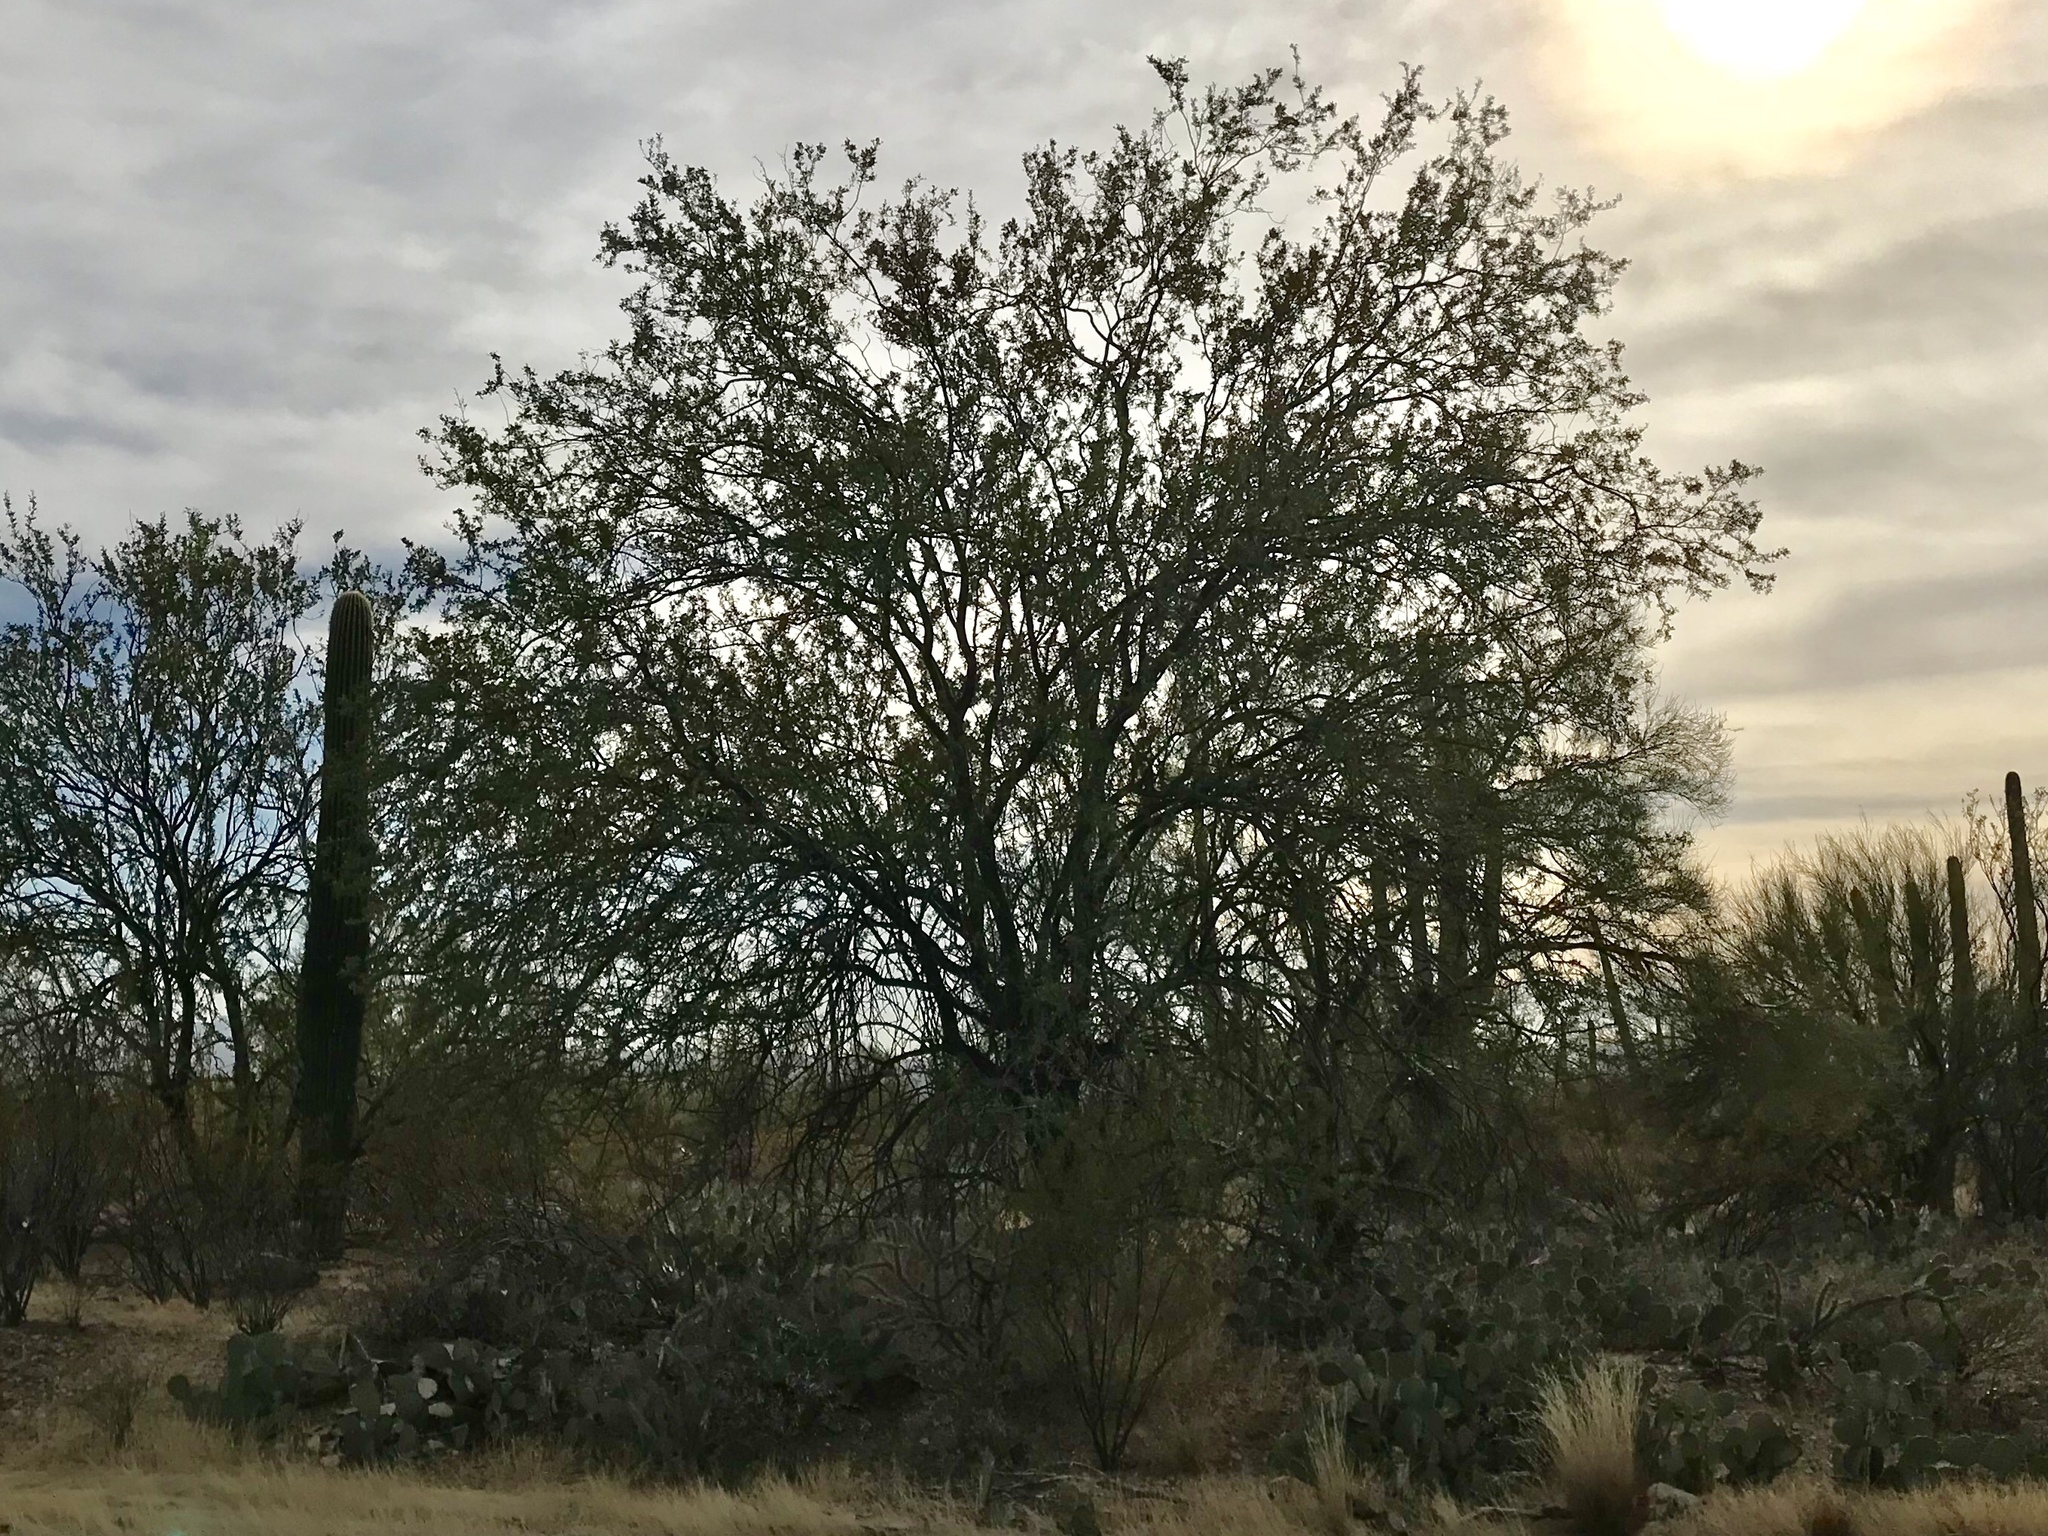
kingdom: Plantae
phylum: Tracheophyta
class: Magnoliopsida
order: Fabales
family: Fabaceae
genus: Olneya
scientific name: Olneya tesota
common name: Desert ironwood
